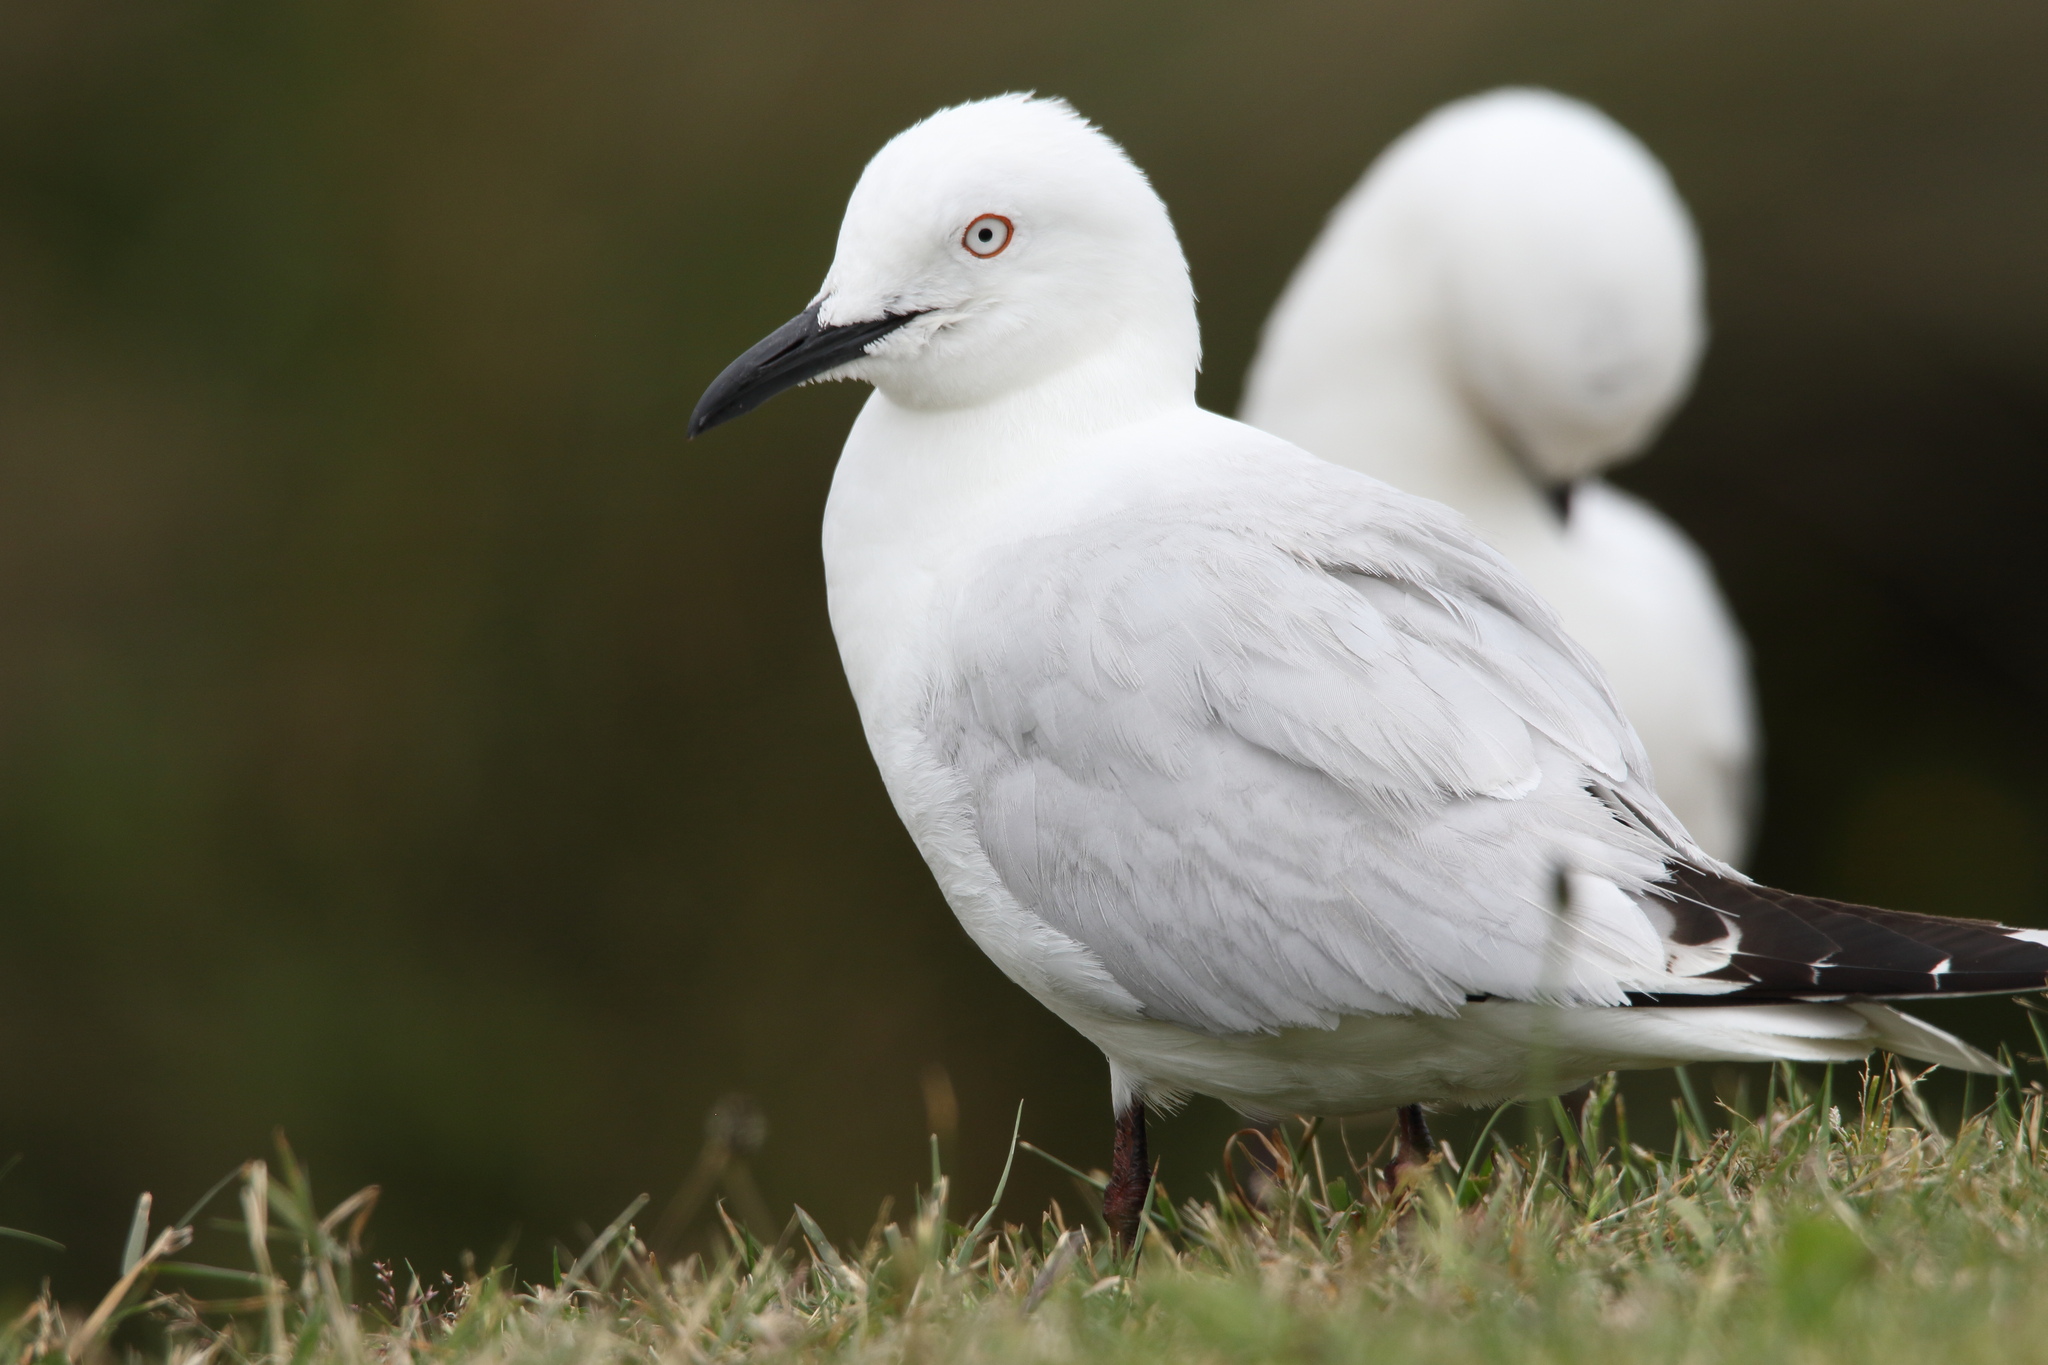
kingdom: Animalia
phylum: Chordata
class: Aves
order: Charadriiformes
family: Laridae
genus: Chroicocephalus
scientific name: Chroicocephalus bulleri
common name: Black-billed gull
